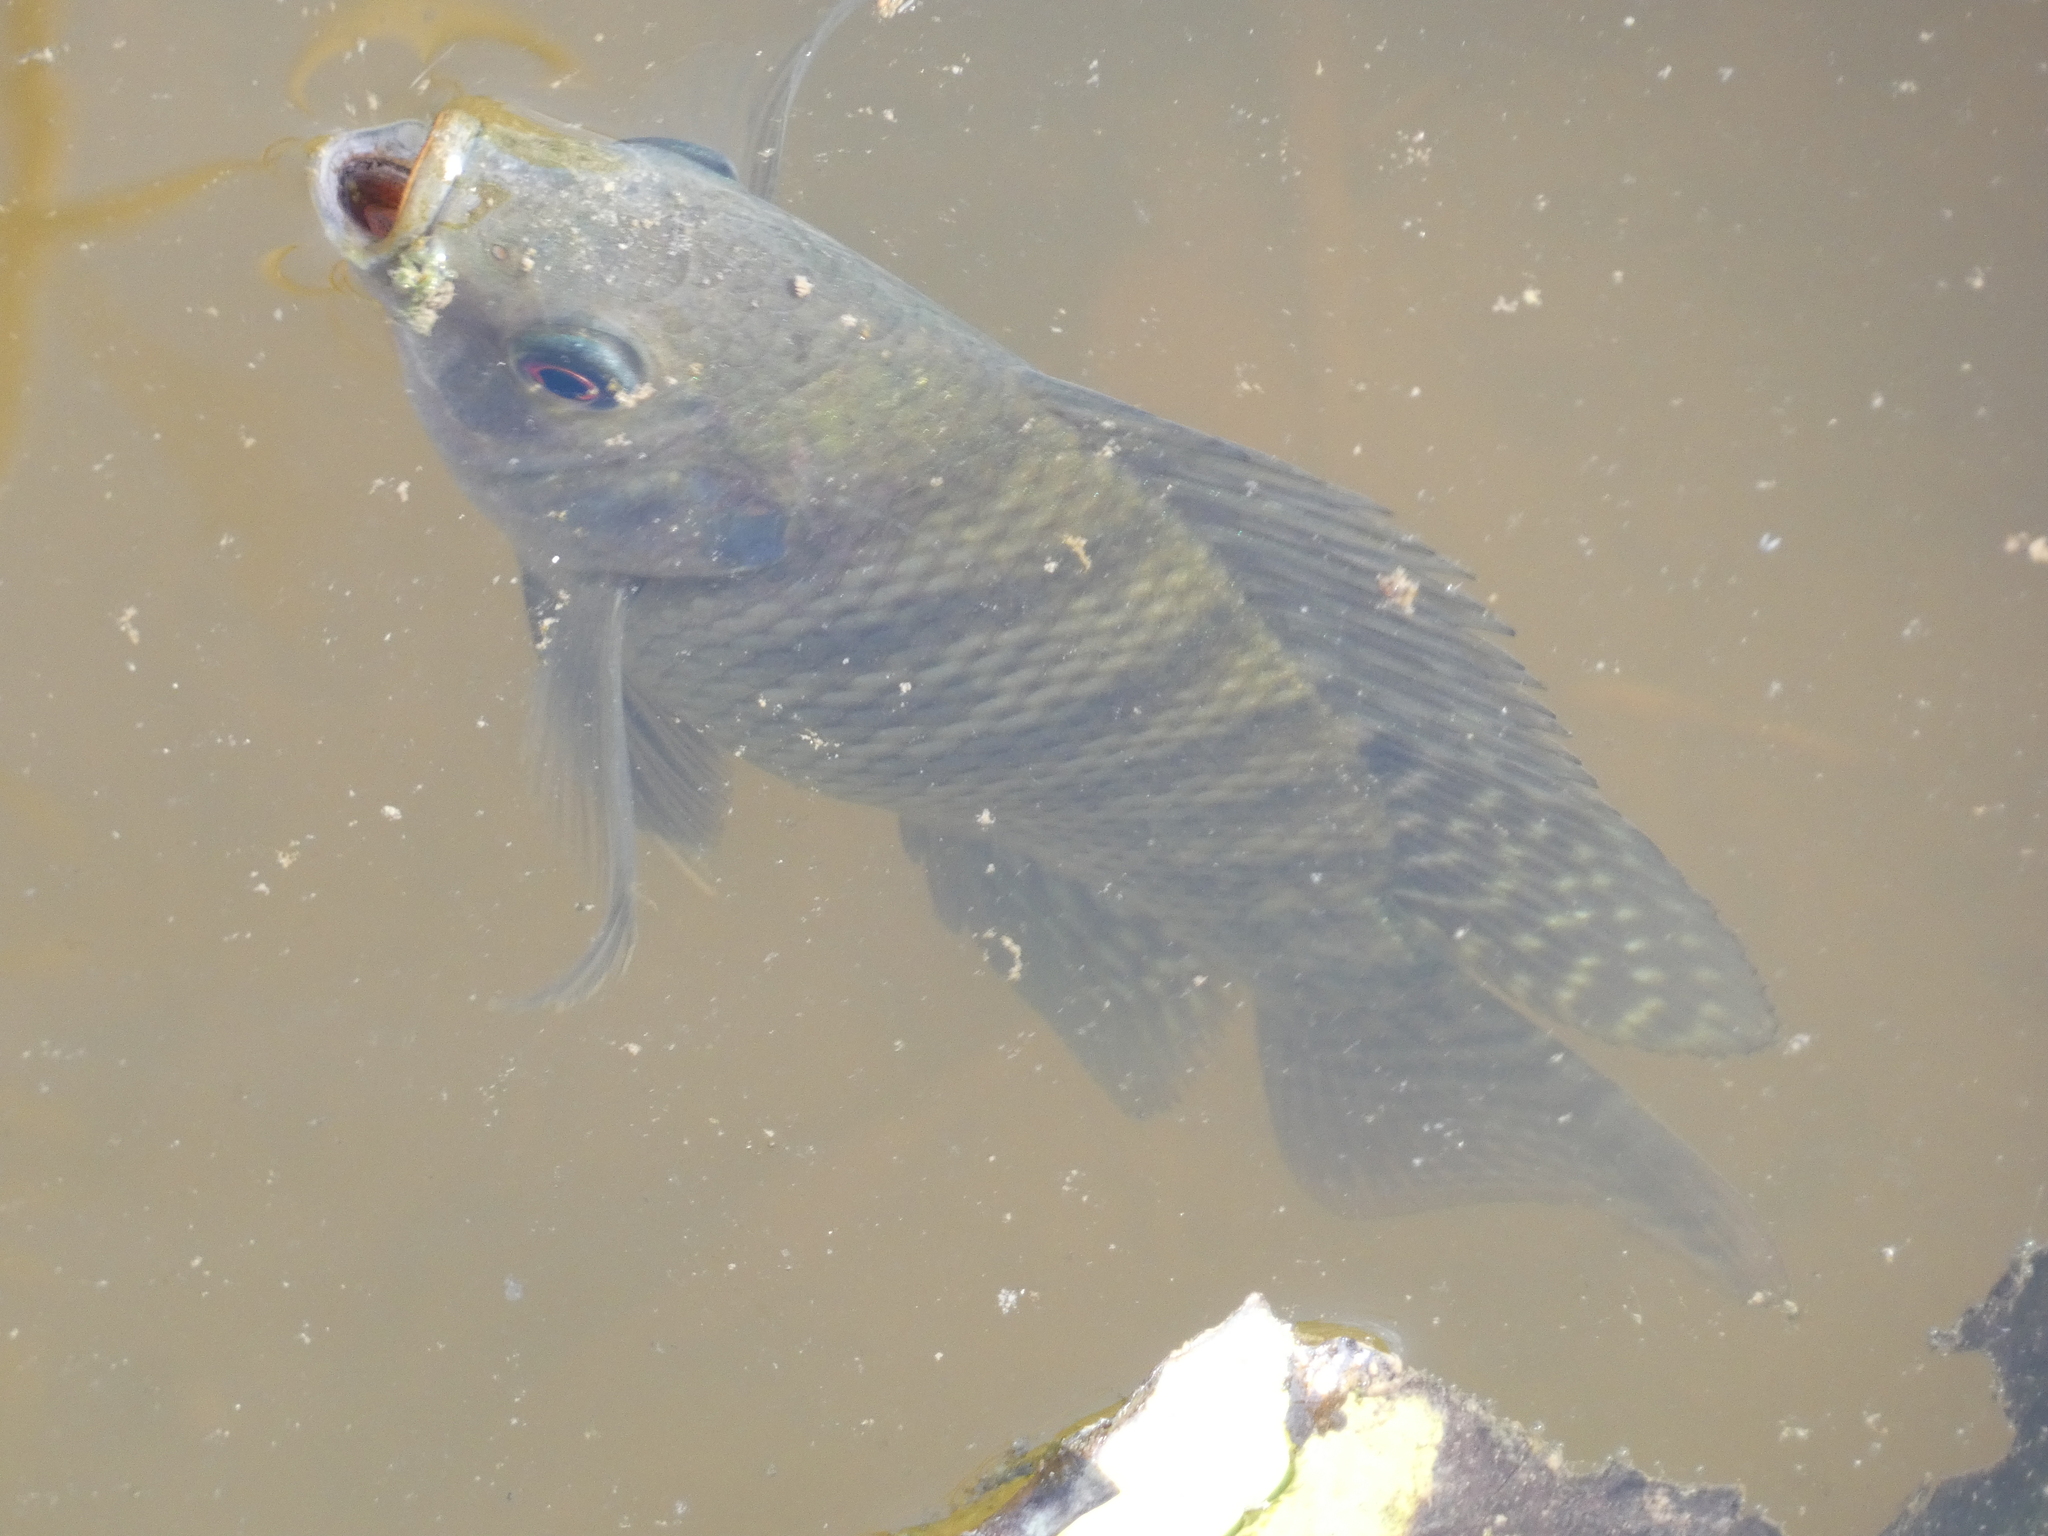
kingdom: Animalia
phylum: Chordata
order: Perciformes
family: Cichlidae
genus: Oreochromis
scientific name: Oreochromis niloticus
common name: Nile tilapia
